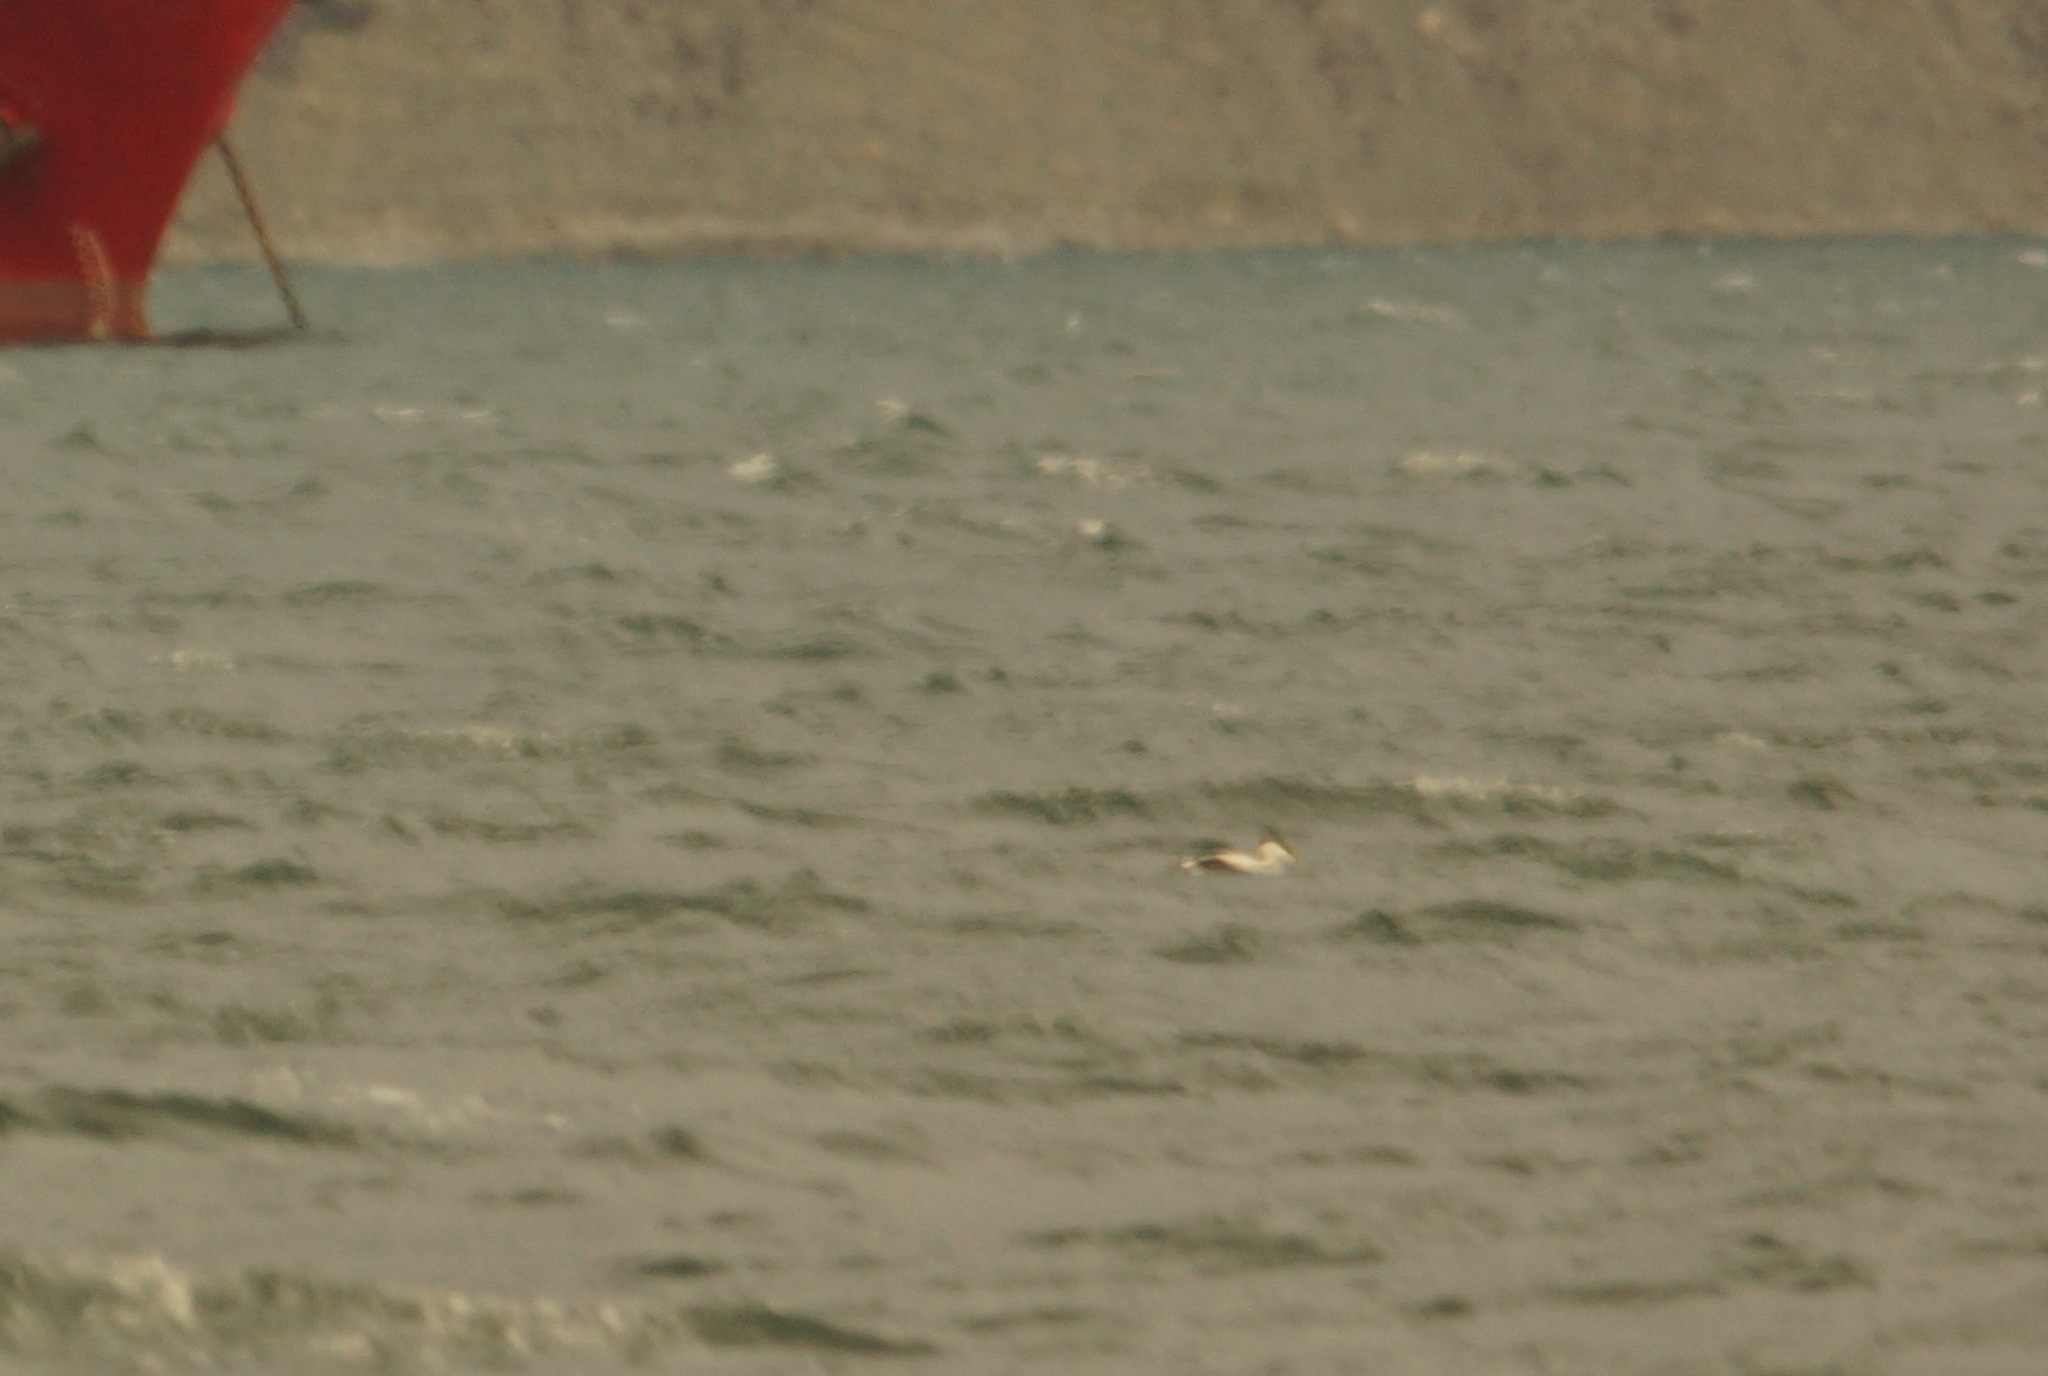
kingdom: Animalia
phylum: Chordata
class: Aves
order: Anseriformes
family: Anatidae
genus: Somateria
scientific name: Somateria mollissima
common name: Common eider
